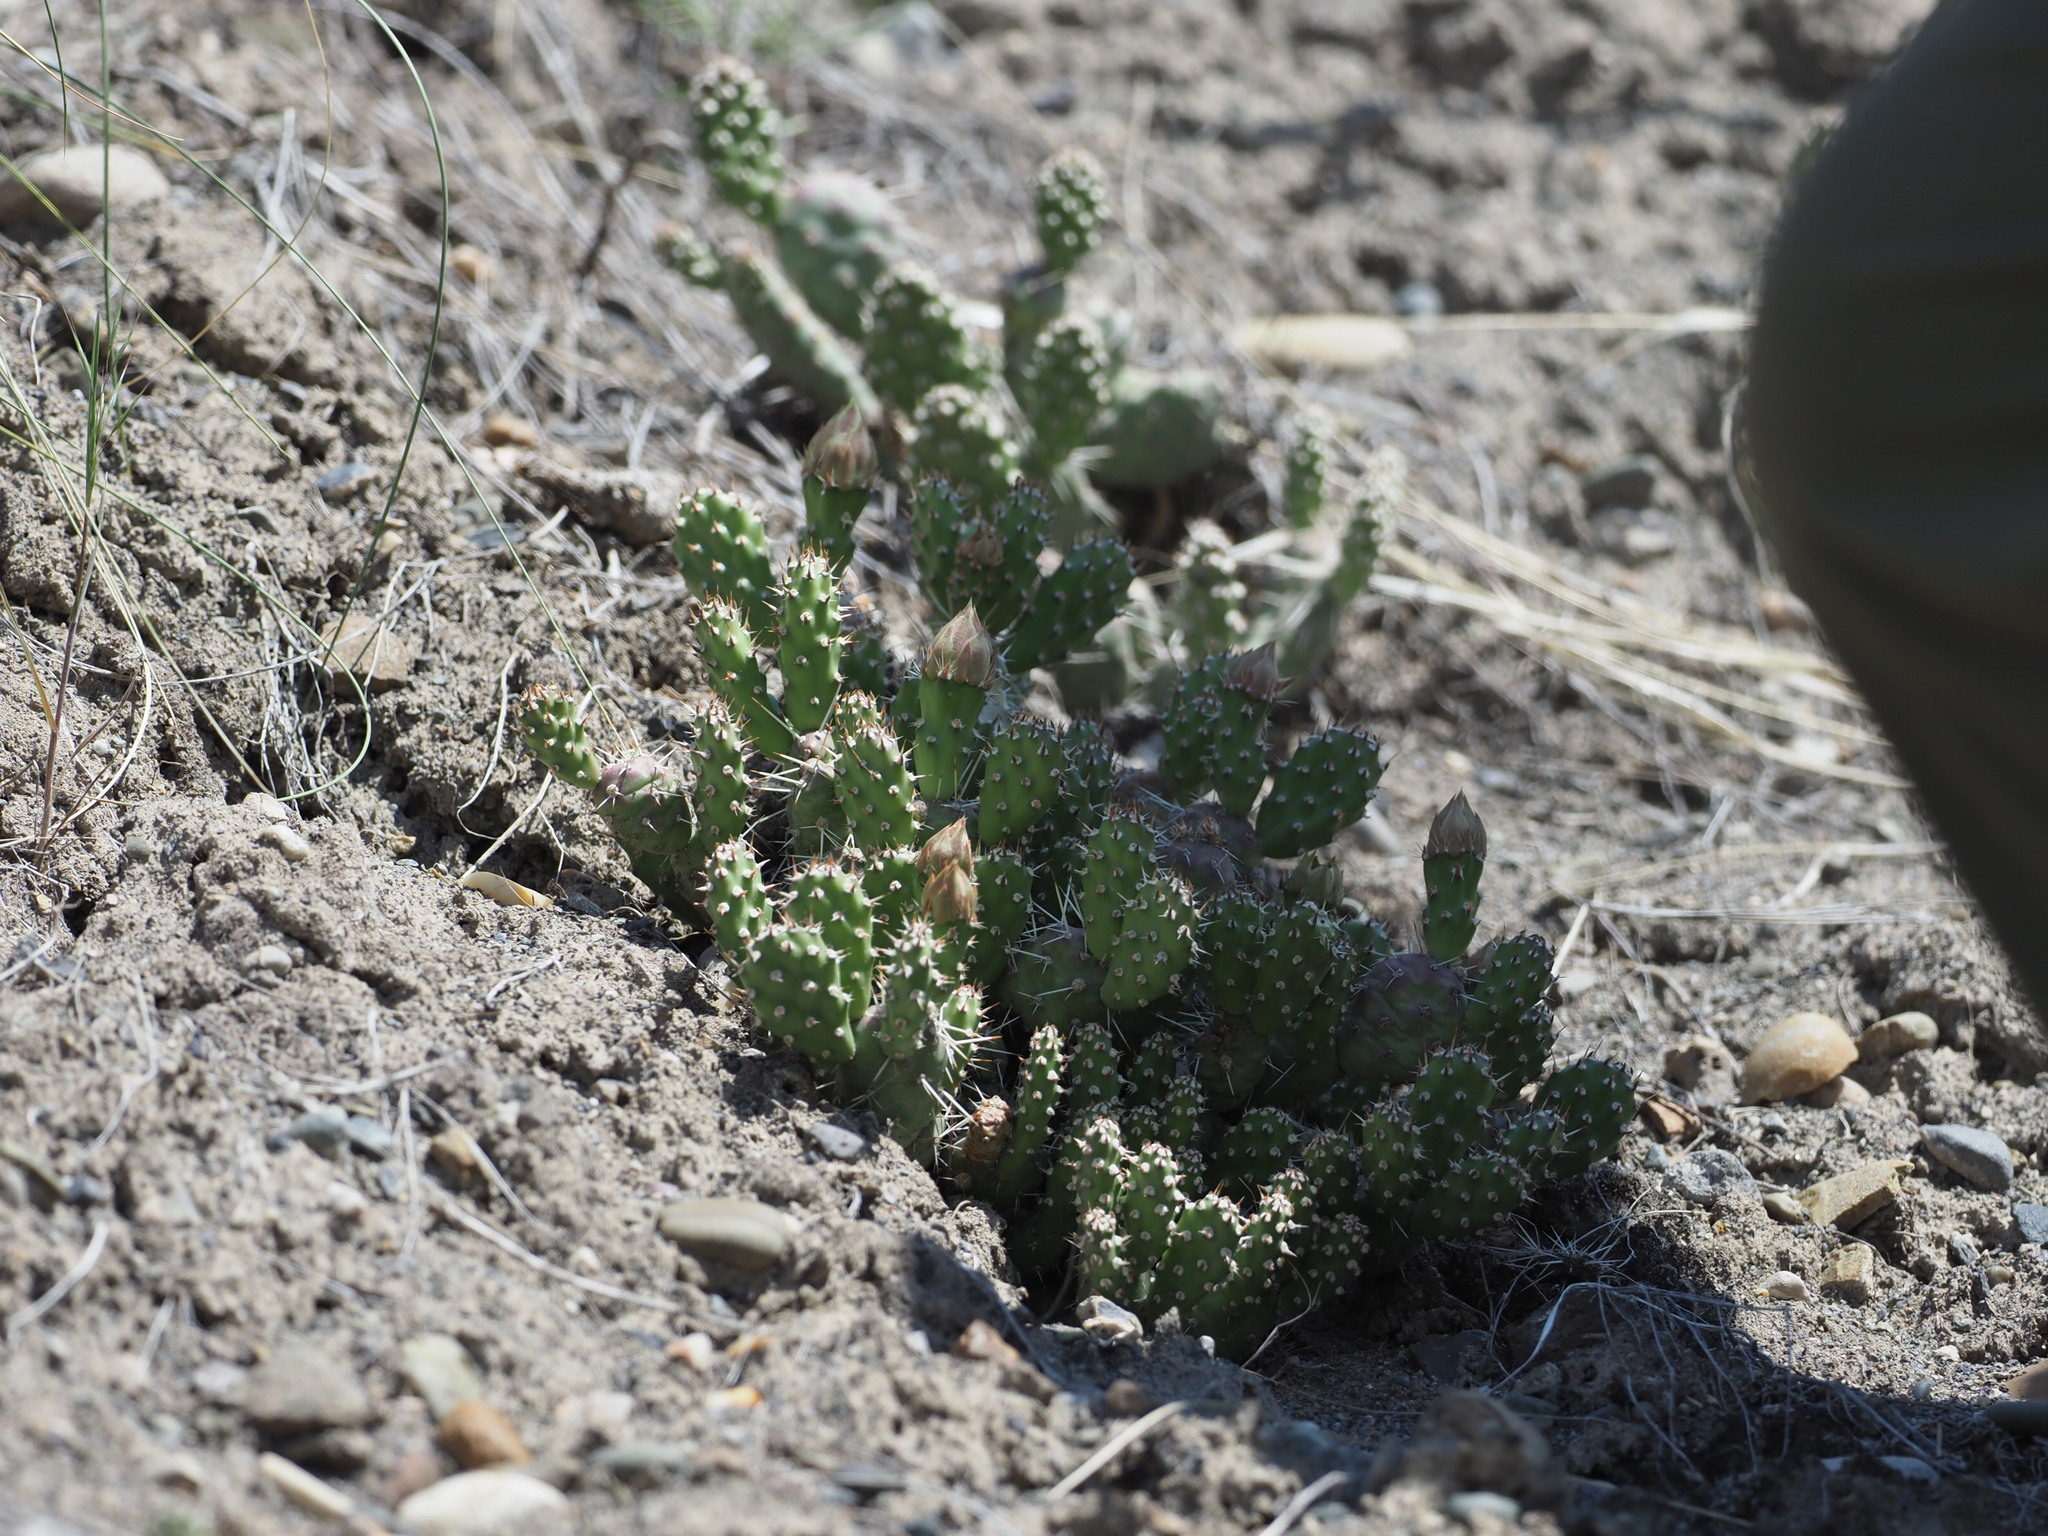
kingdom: Plantae
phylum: Tracheophyta
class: Magnoliopsida
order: Caryophyllales
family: Cactaceae
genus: Opuntia
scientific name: Opuntia fragilis
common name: Brittle cactus
